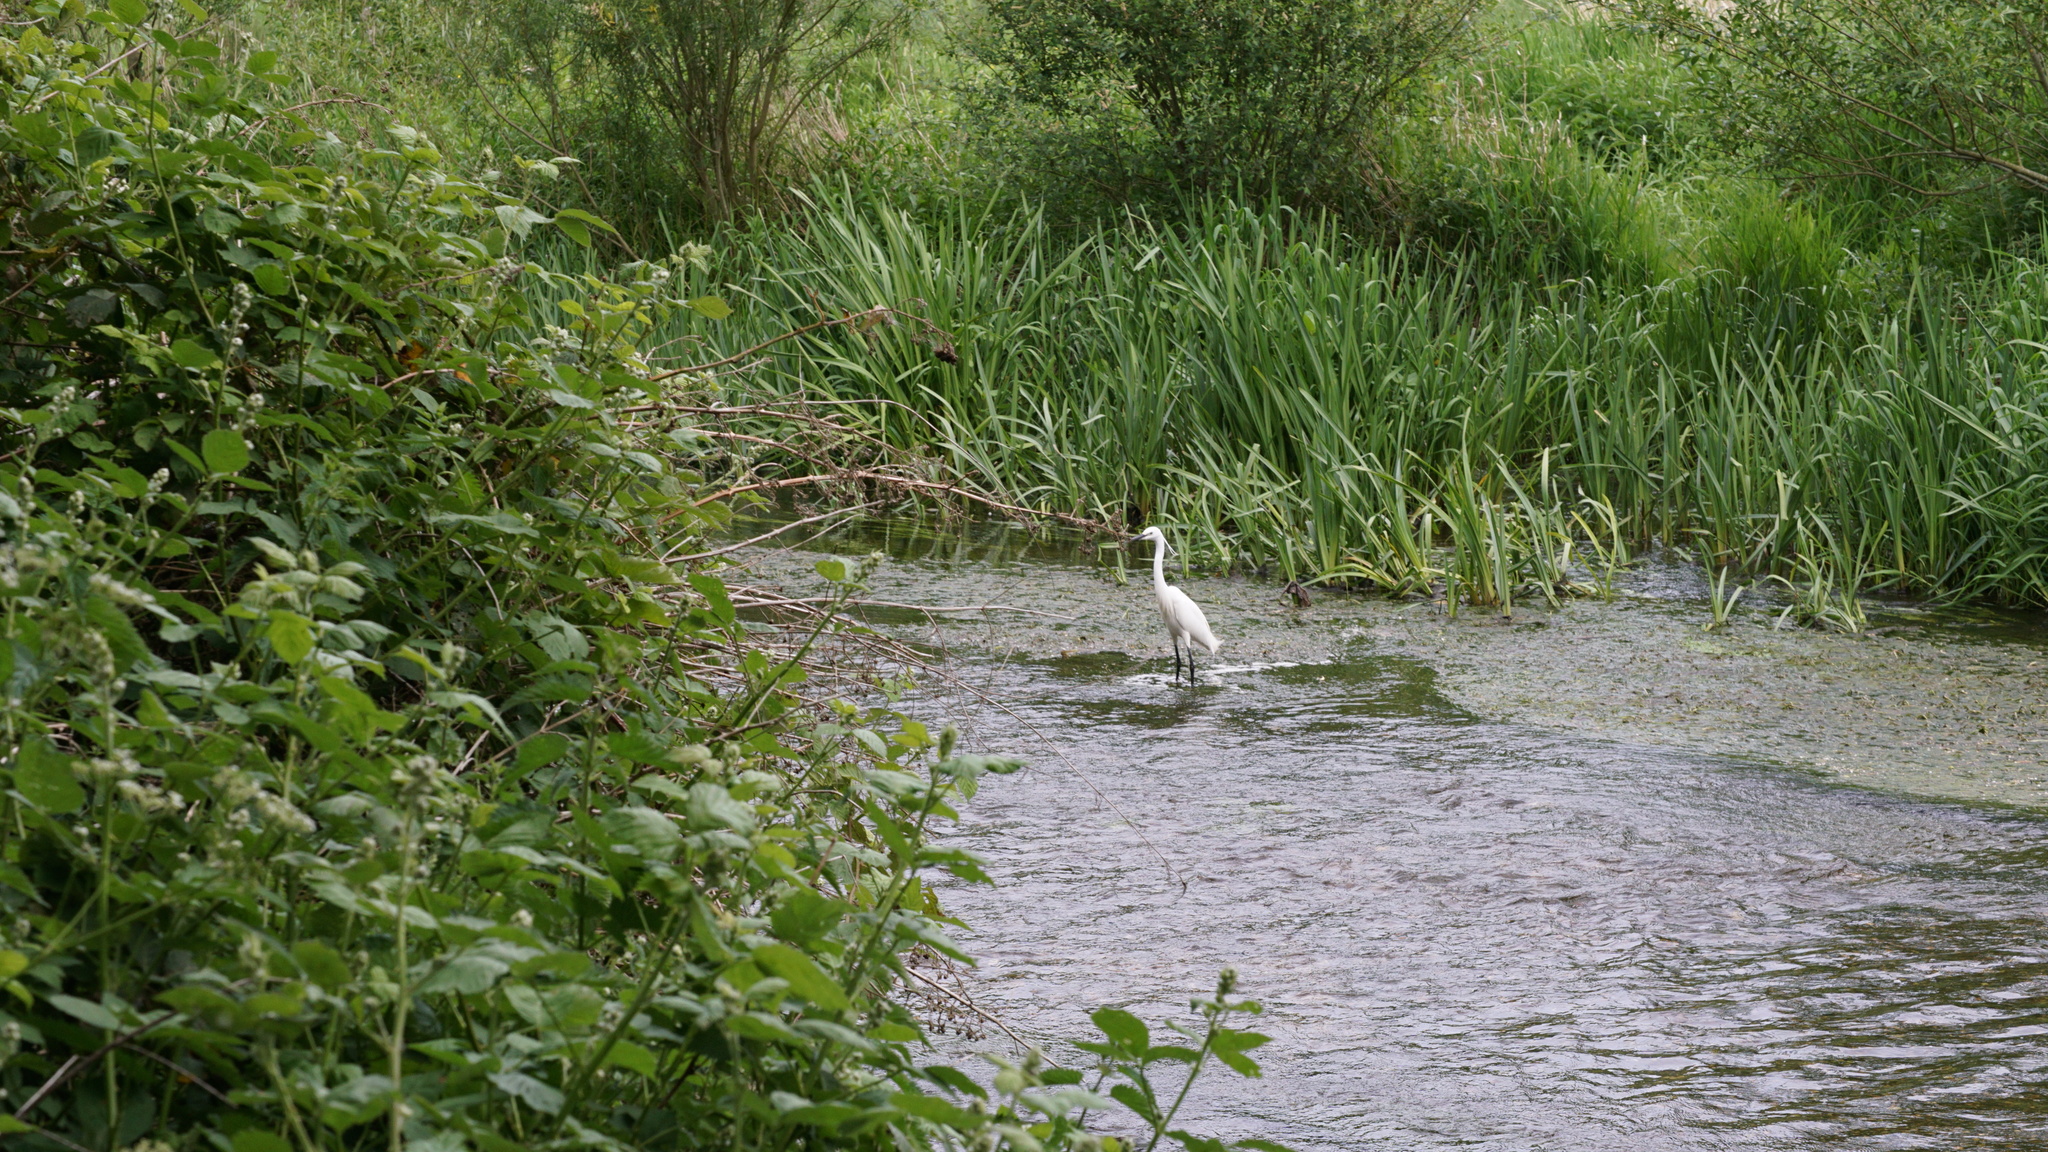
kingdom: Animalia
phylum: Chordata
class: Aves
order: Pelecaniformes
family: Ardeidae
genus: Egretta
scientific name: Egretta garzetta
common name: Little egret
